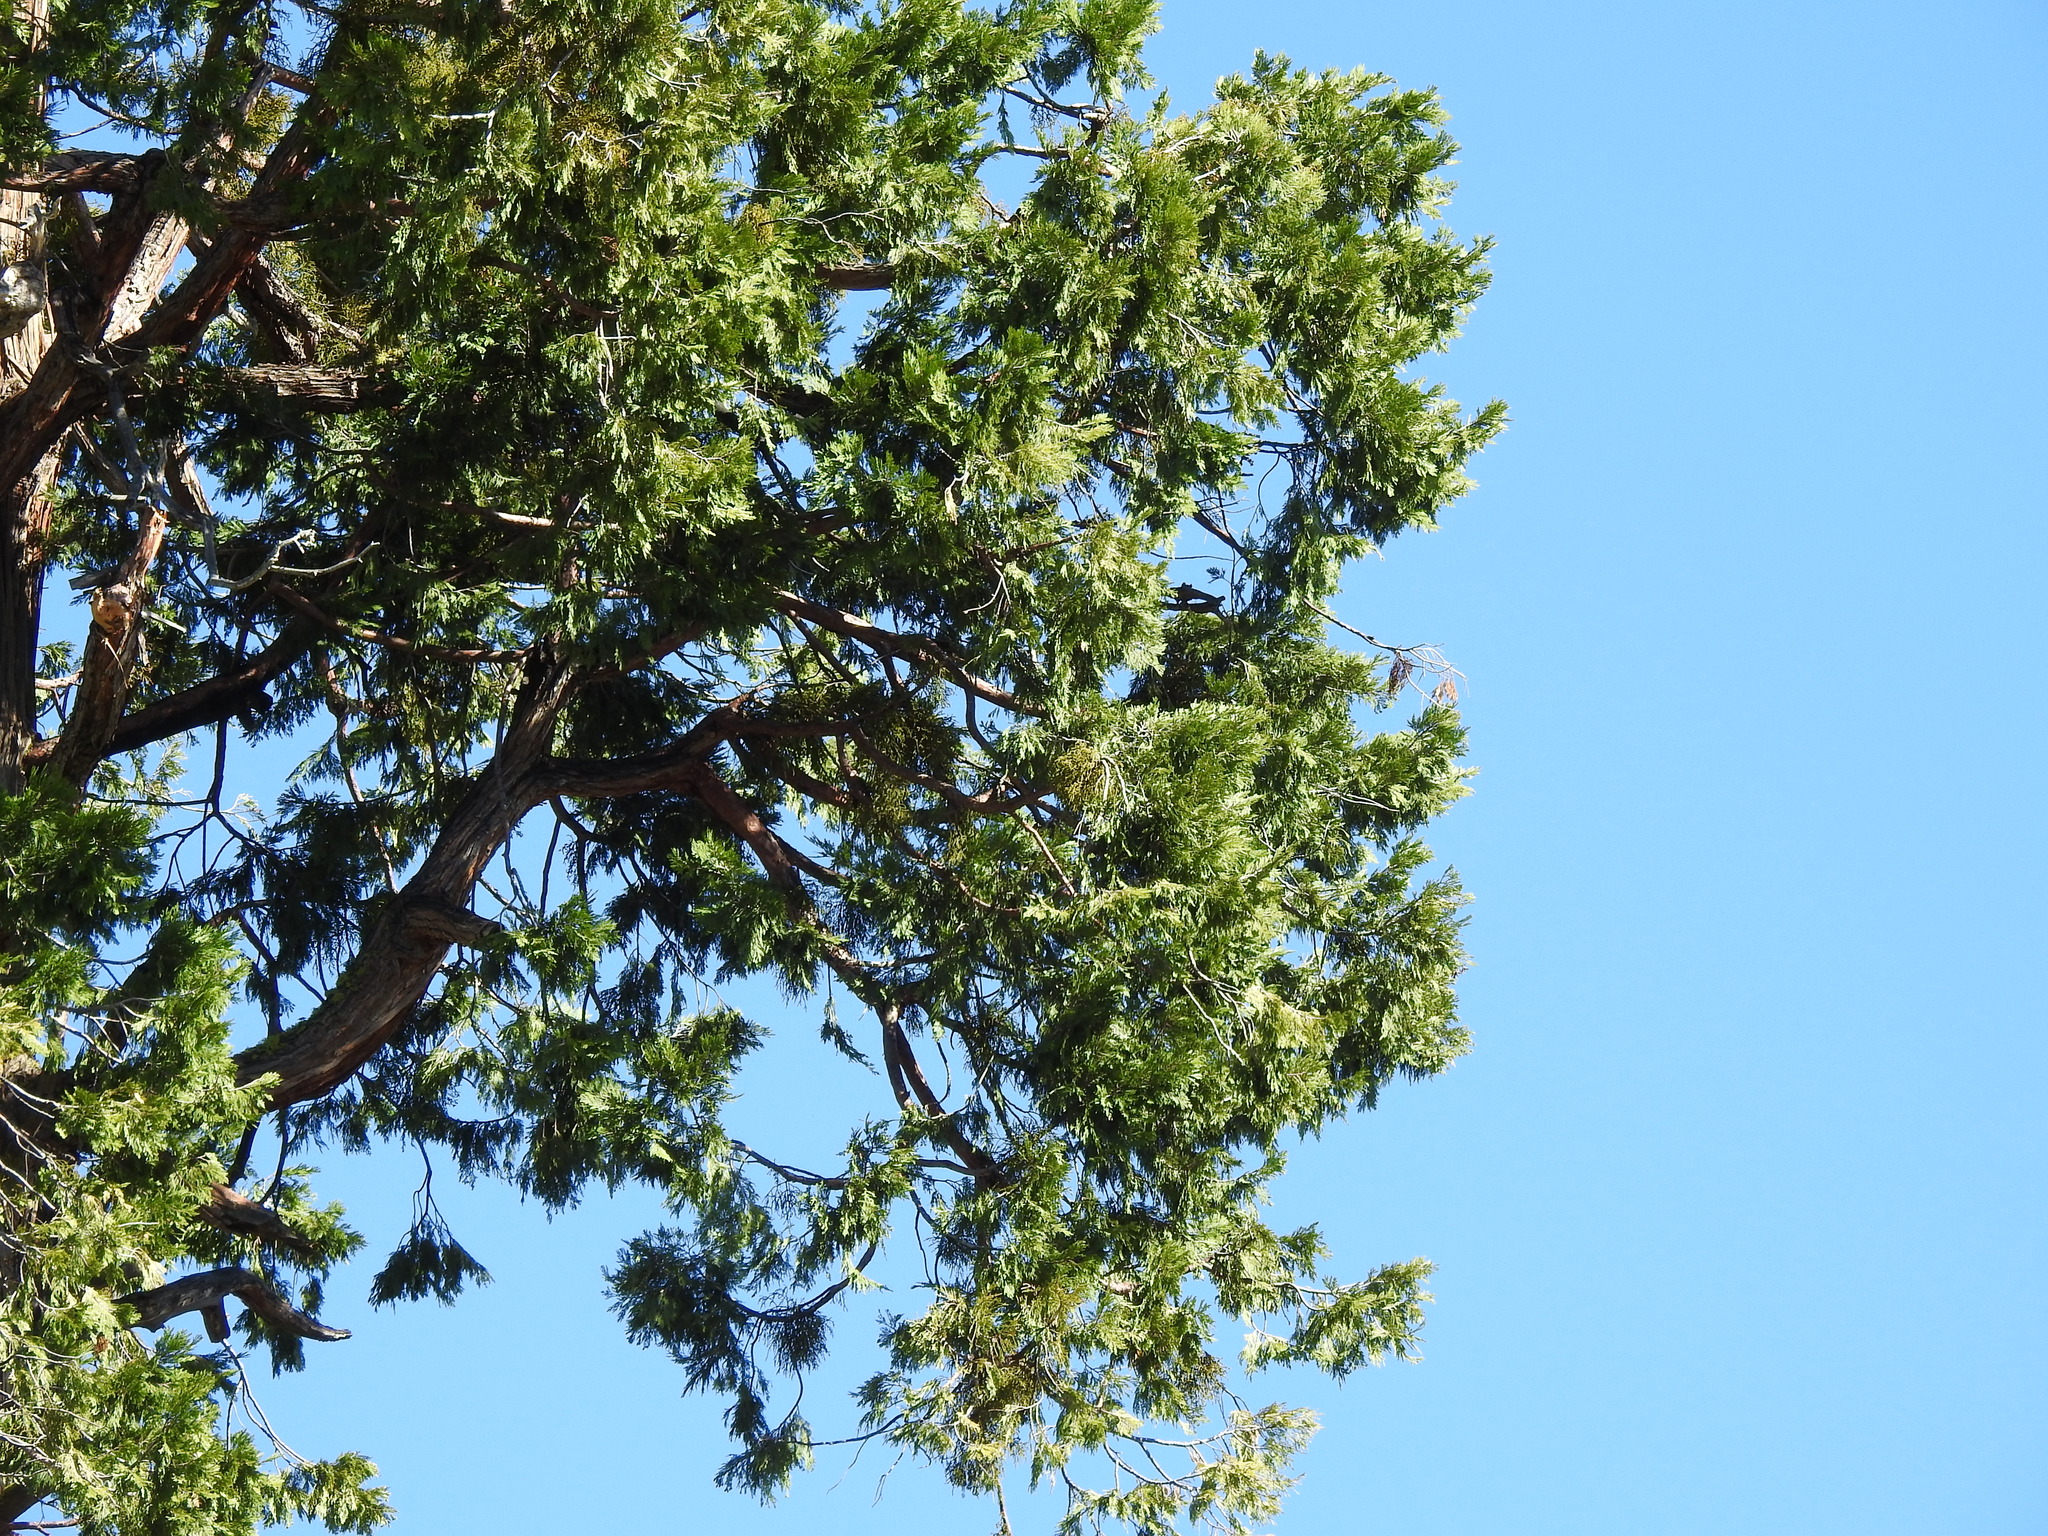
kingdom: Plantae
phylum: Tracheophyta
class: Pinopsida
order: Pinales
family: Cupressaceae
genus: Calocedrus
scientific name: Calocedrus decurrens
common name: Californian incense-cedar
